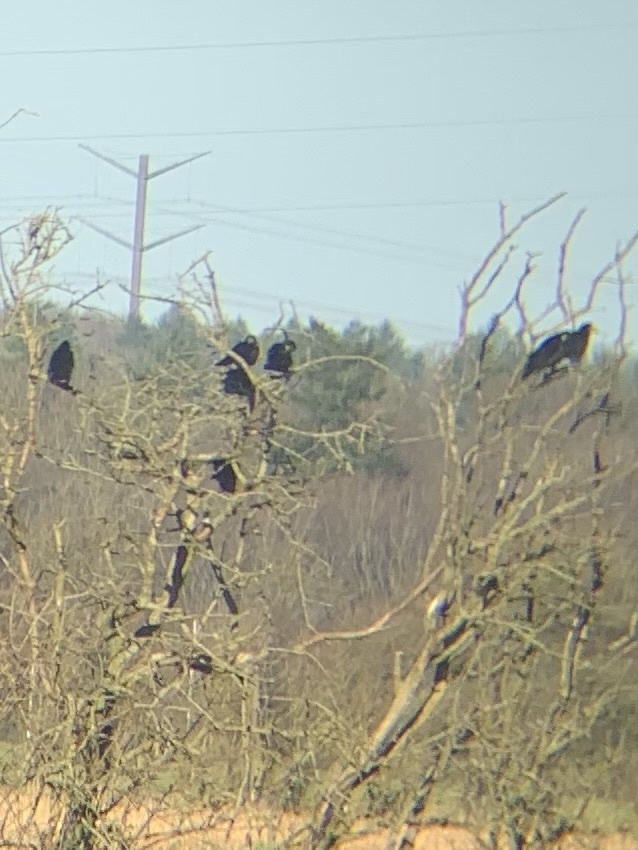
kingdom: Animalia
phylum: Chordata
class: Aves
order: Passeriformes
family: Corvidae
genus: Corvus
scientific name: Corvus frugilegus
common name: Rook
